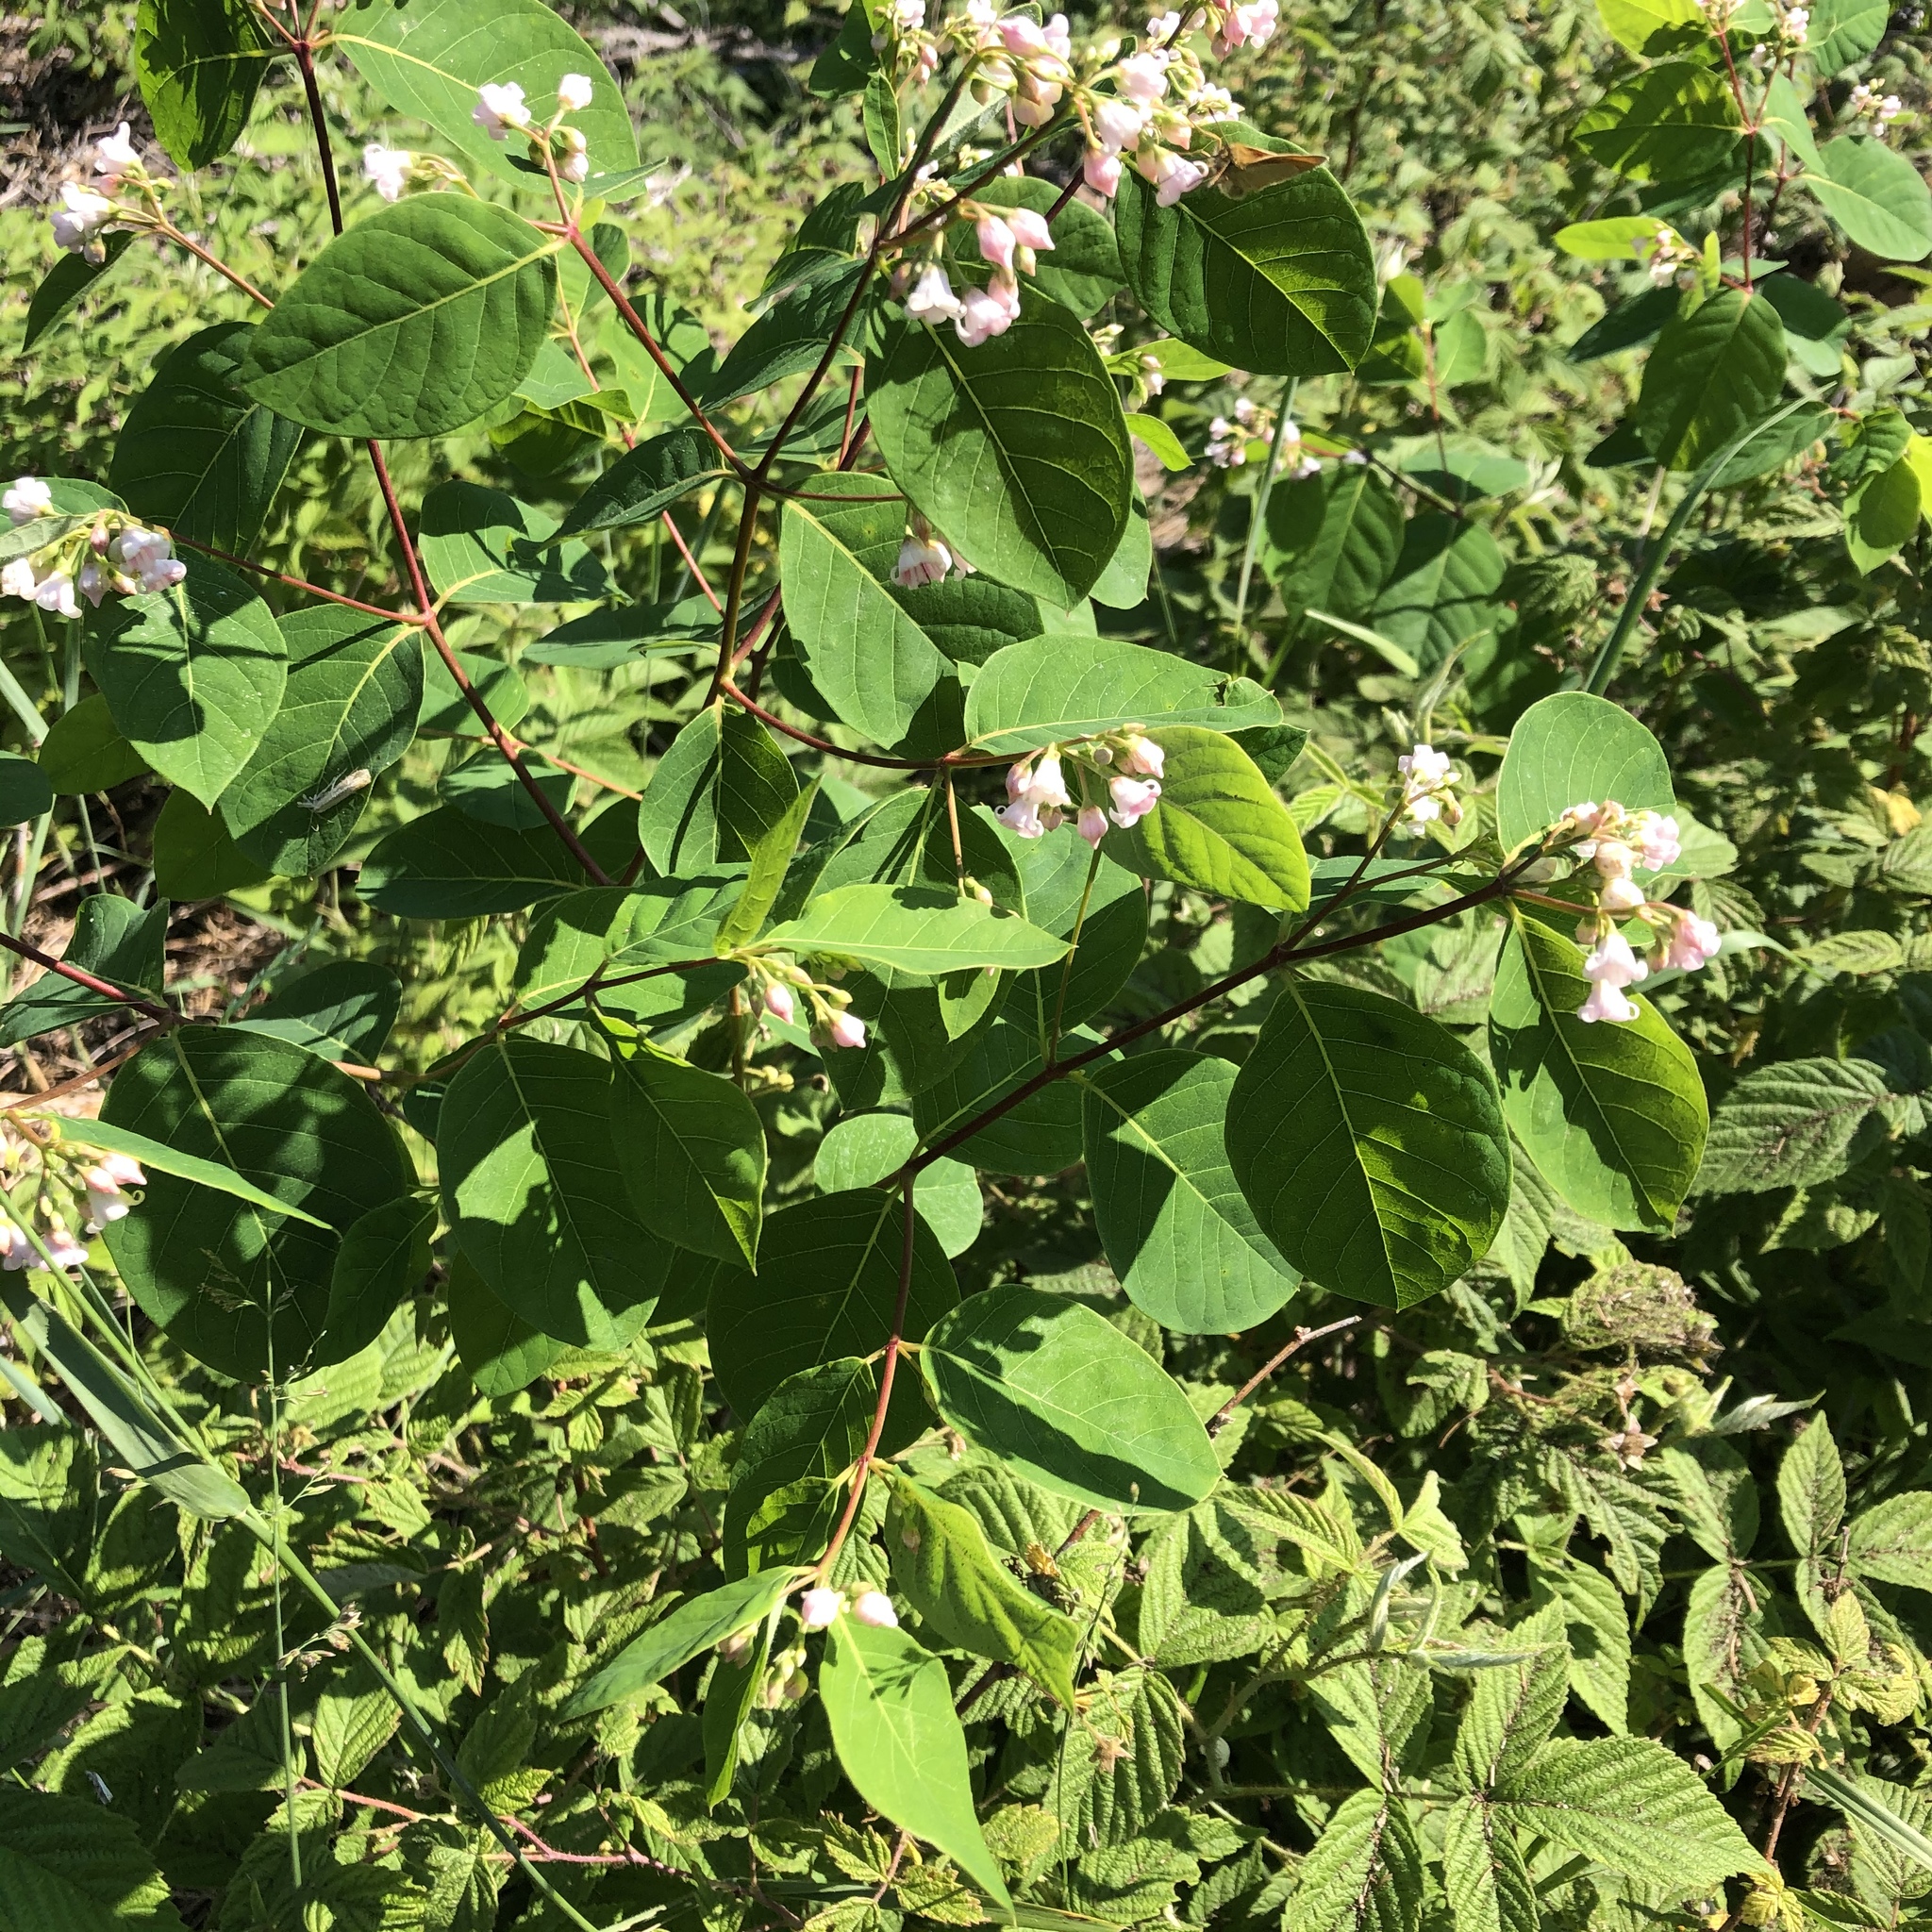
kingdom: Plantae
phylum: Tracheophyta
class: Magnoliopsida
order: Gentianales
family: Apocynaceae
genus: Apocynum
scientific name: Apocynum androsaemifolium
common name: Spreading dogbane
